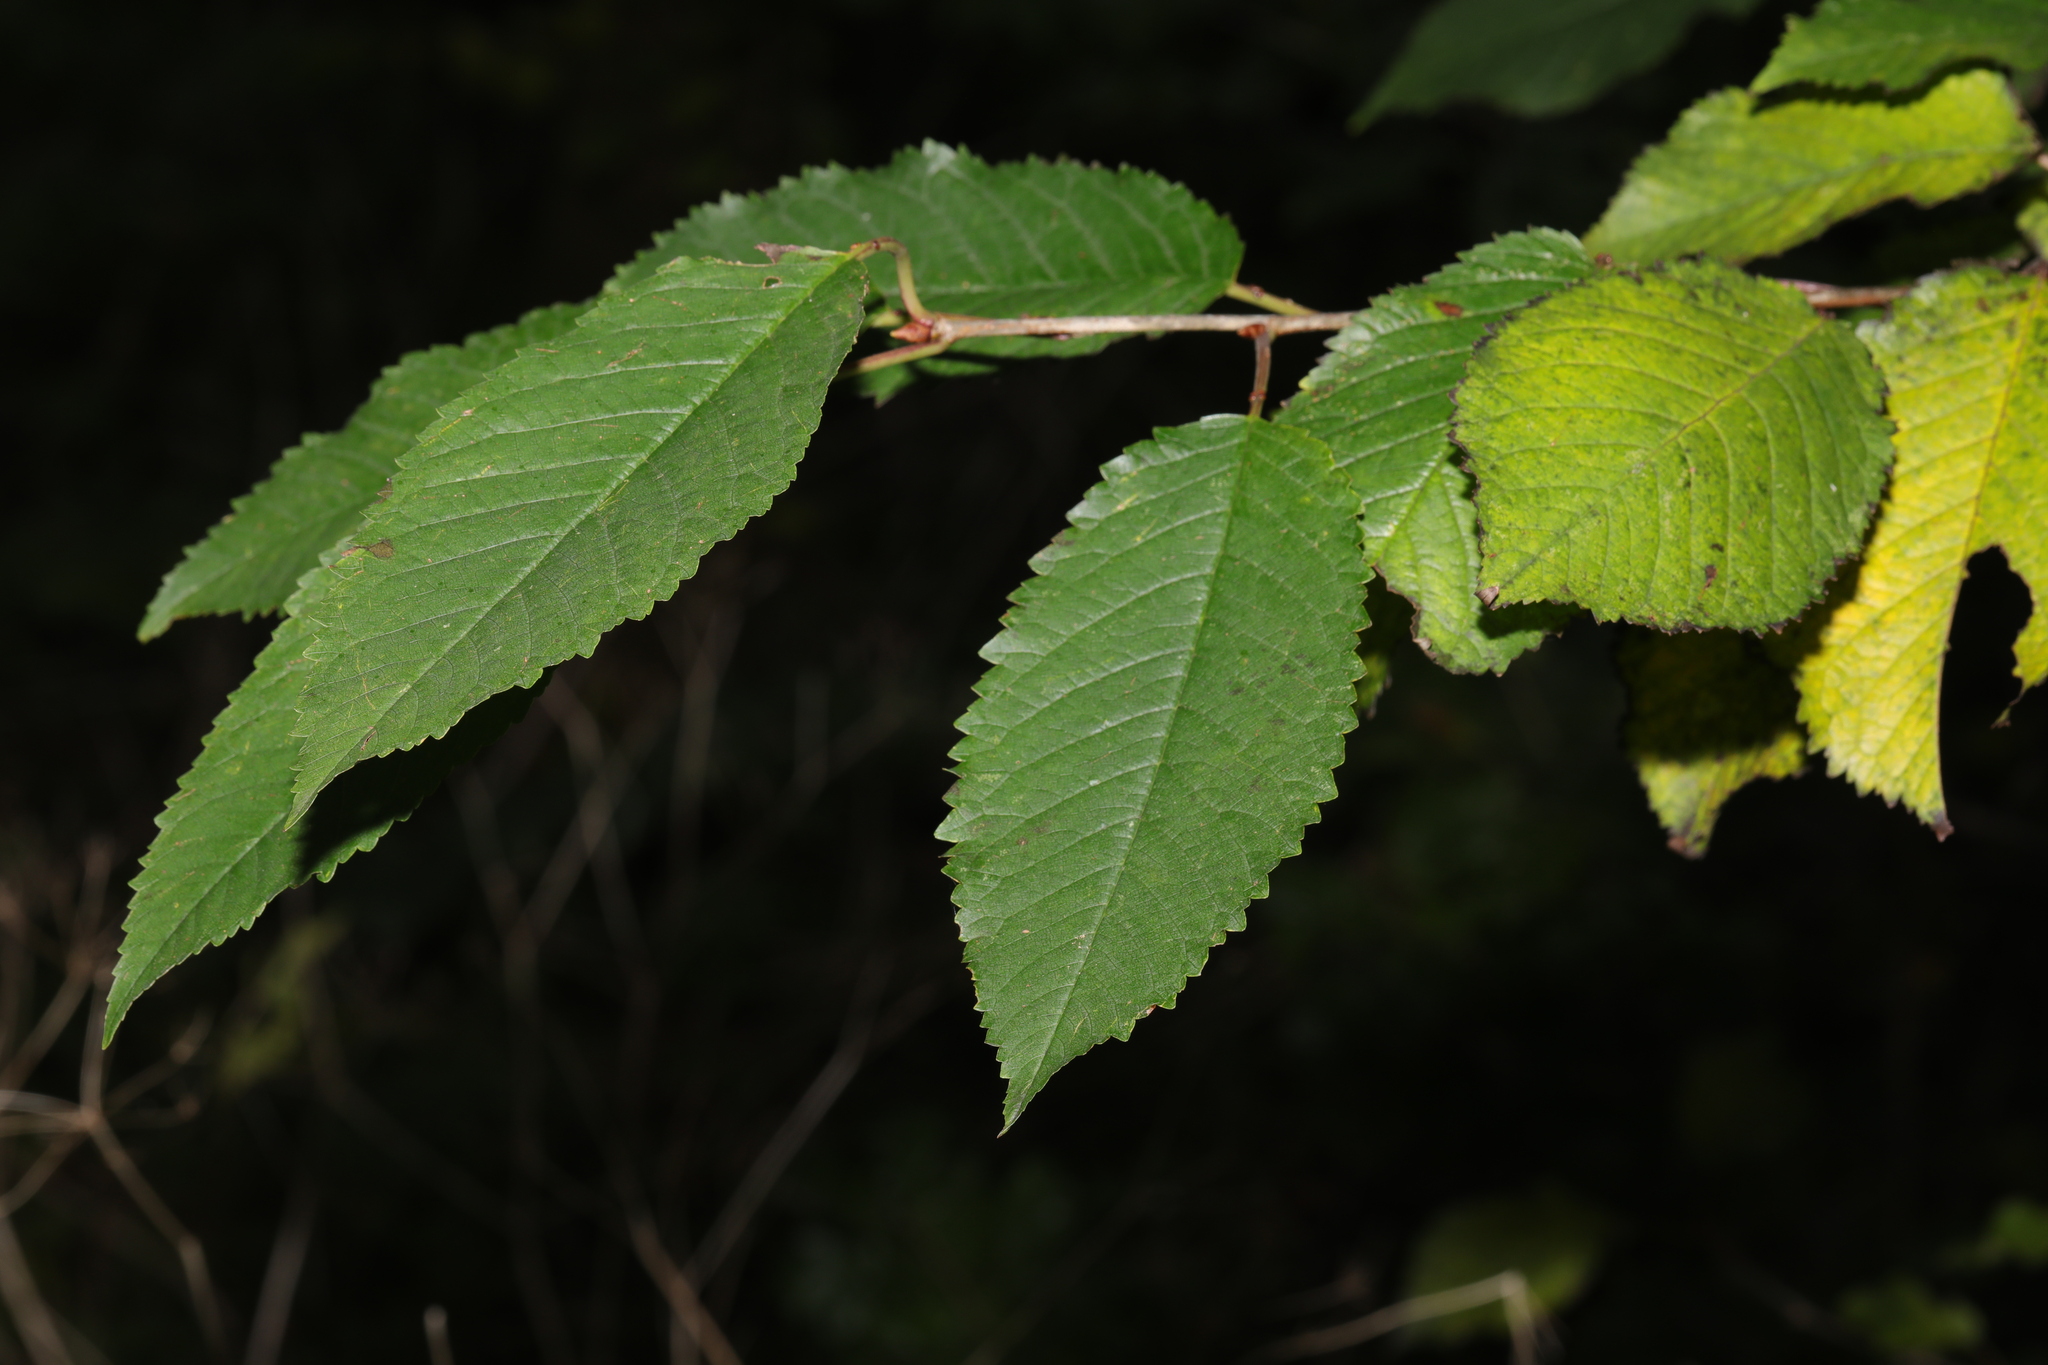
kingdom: Plantae
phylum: Tracheophyta
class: Magnoliopsida
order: Rosales
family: Rosaceae
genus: Prunus
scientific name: Prunus avium
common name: Sweet cherry
